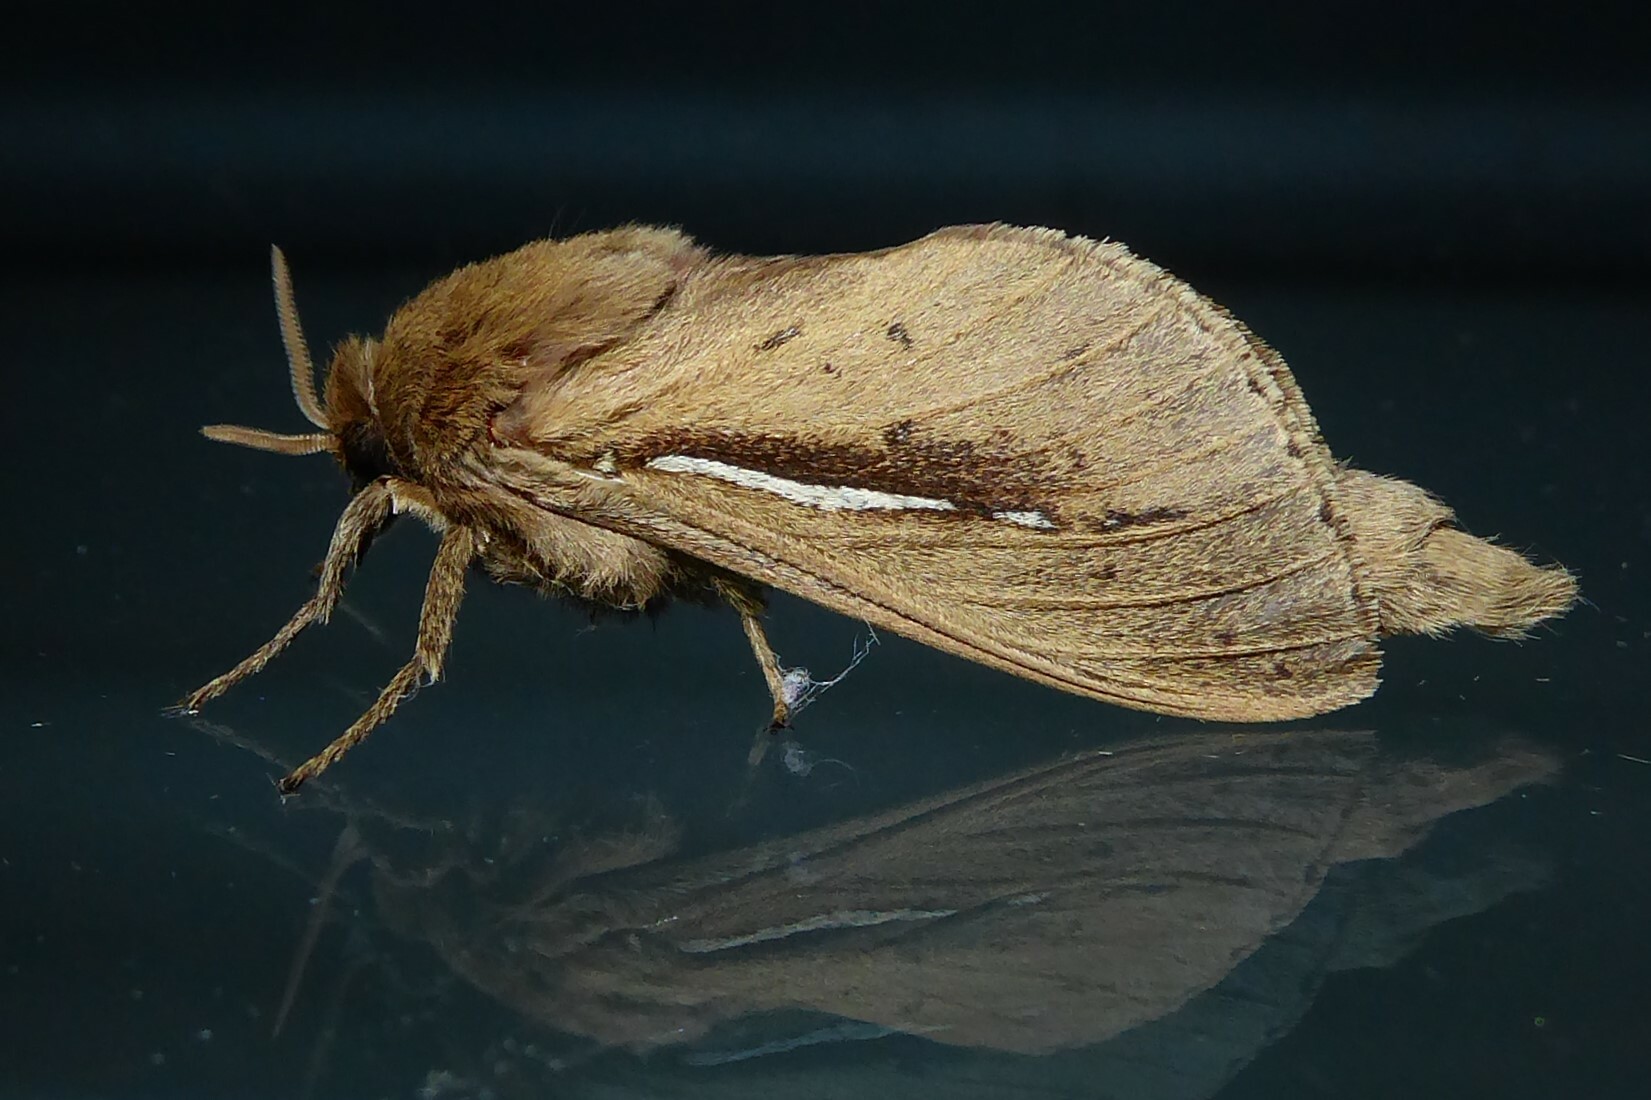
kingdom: Animalia
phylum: Arthropoda
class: Insecta
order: Lepidoptera
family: Hepialidae
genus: Wiseana
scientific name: Wiseana umbraculatus
